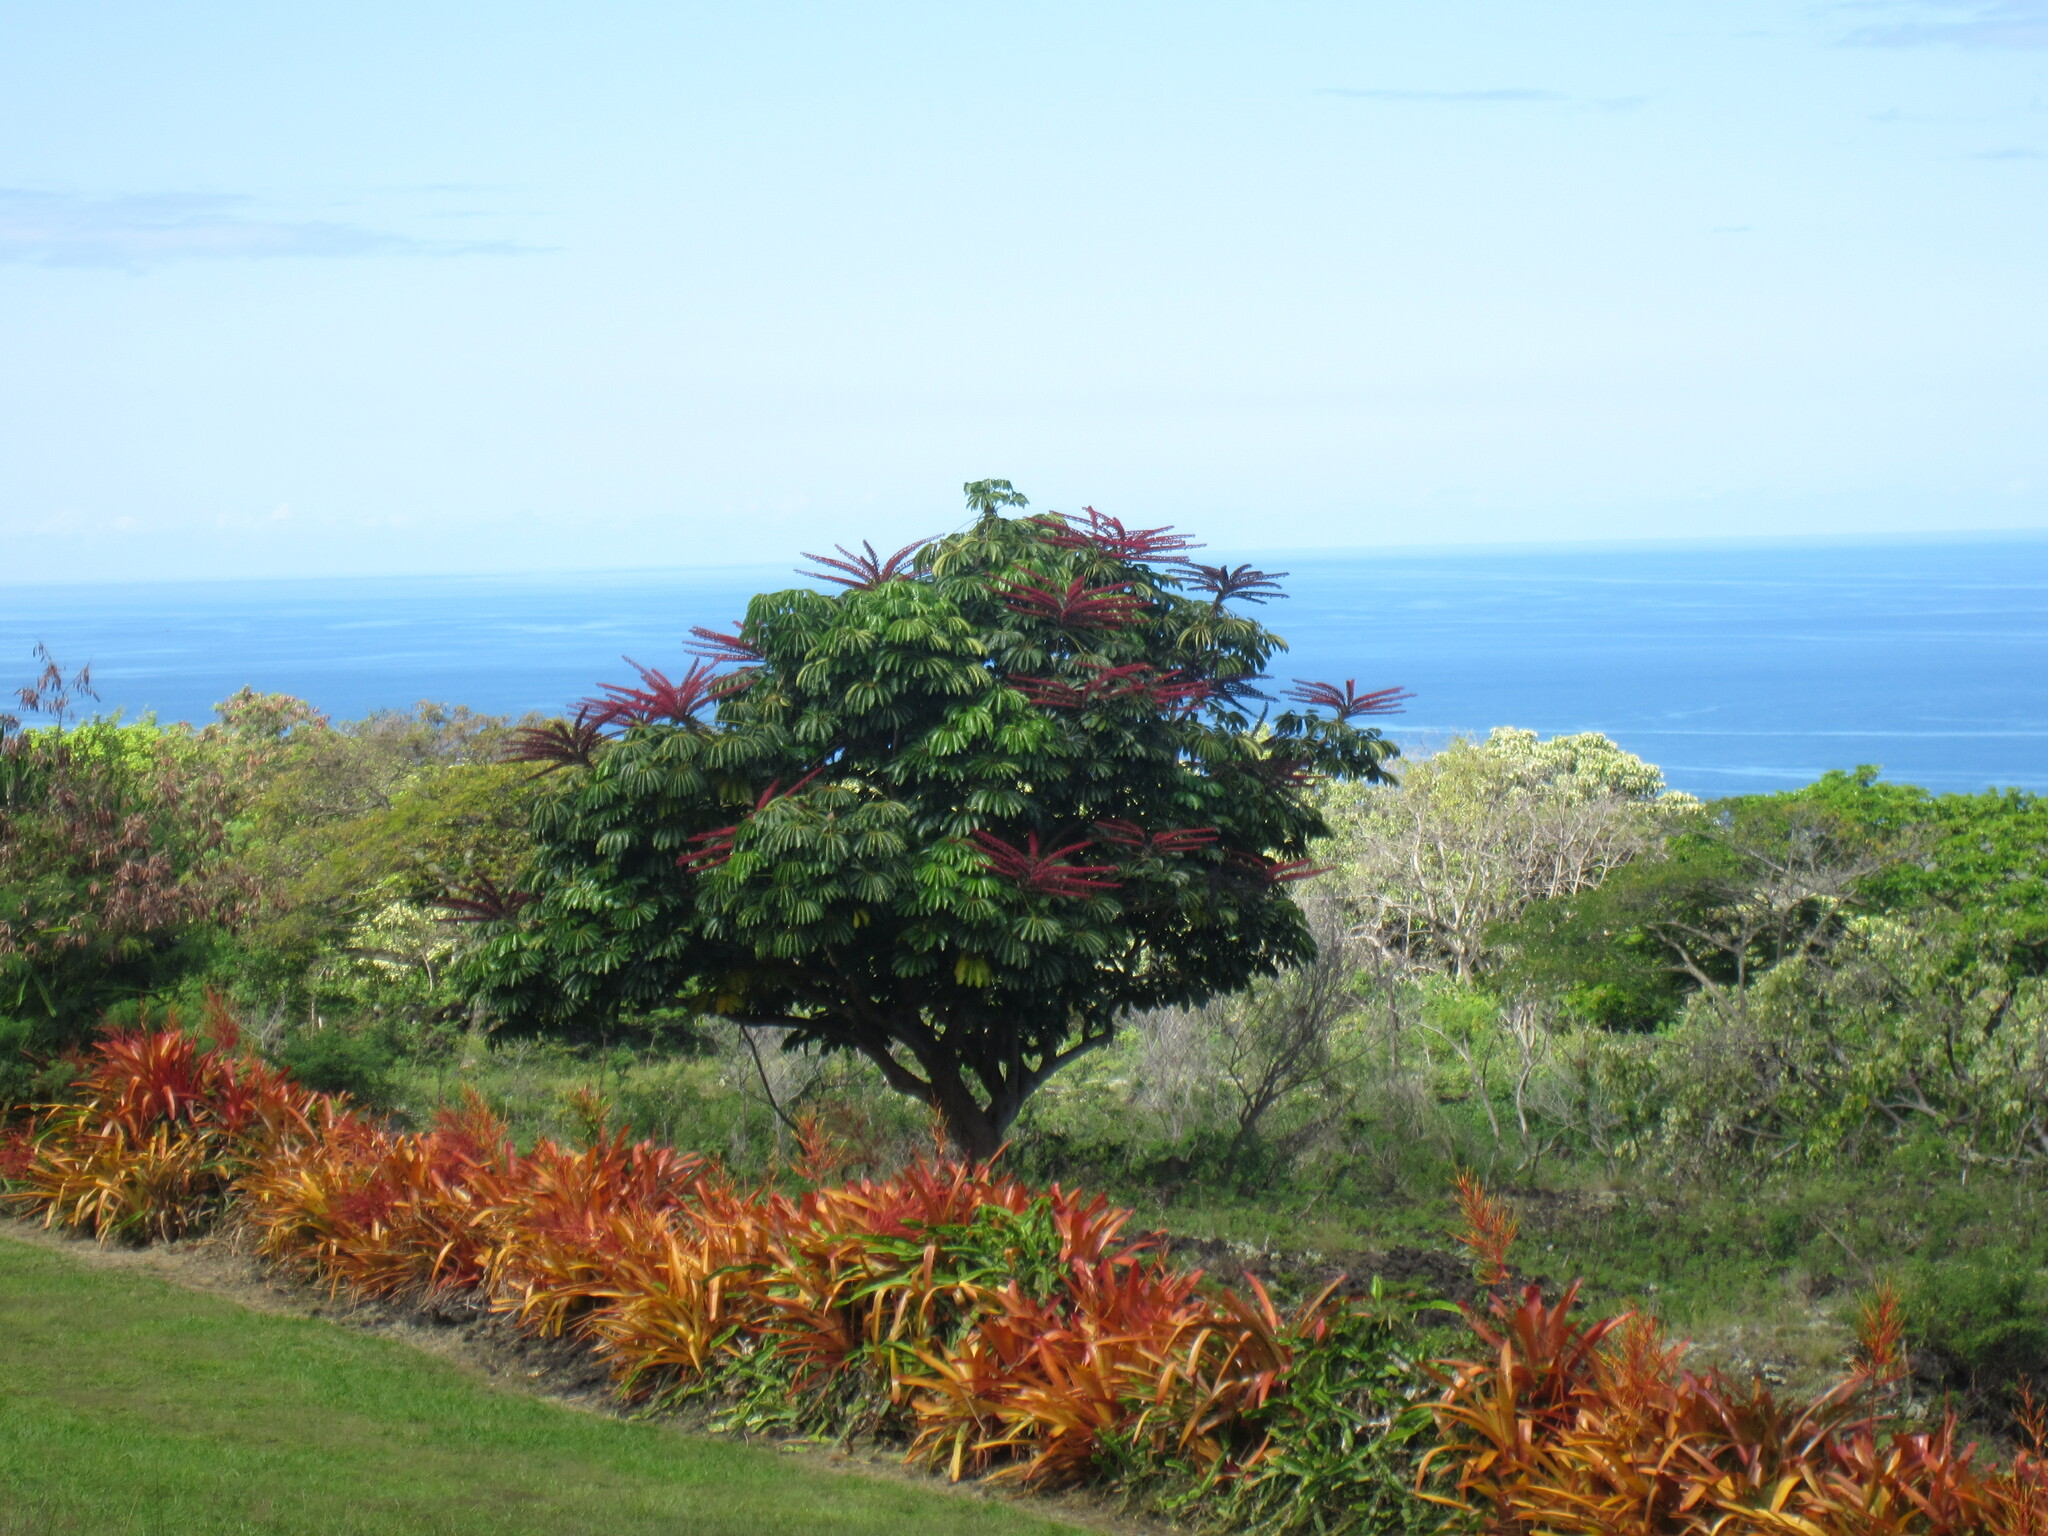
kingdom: Plantae
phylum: Tracheophyta
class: Magnoliopsida
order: Apiales
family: Araliaceae
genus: Heptapleurum
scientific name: Heptapleurum actinophyllum
